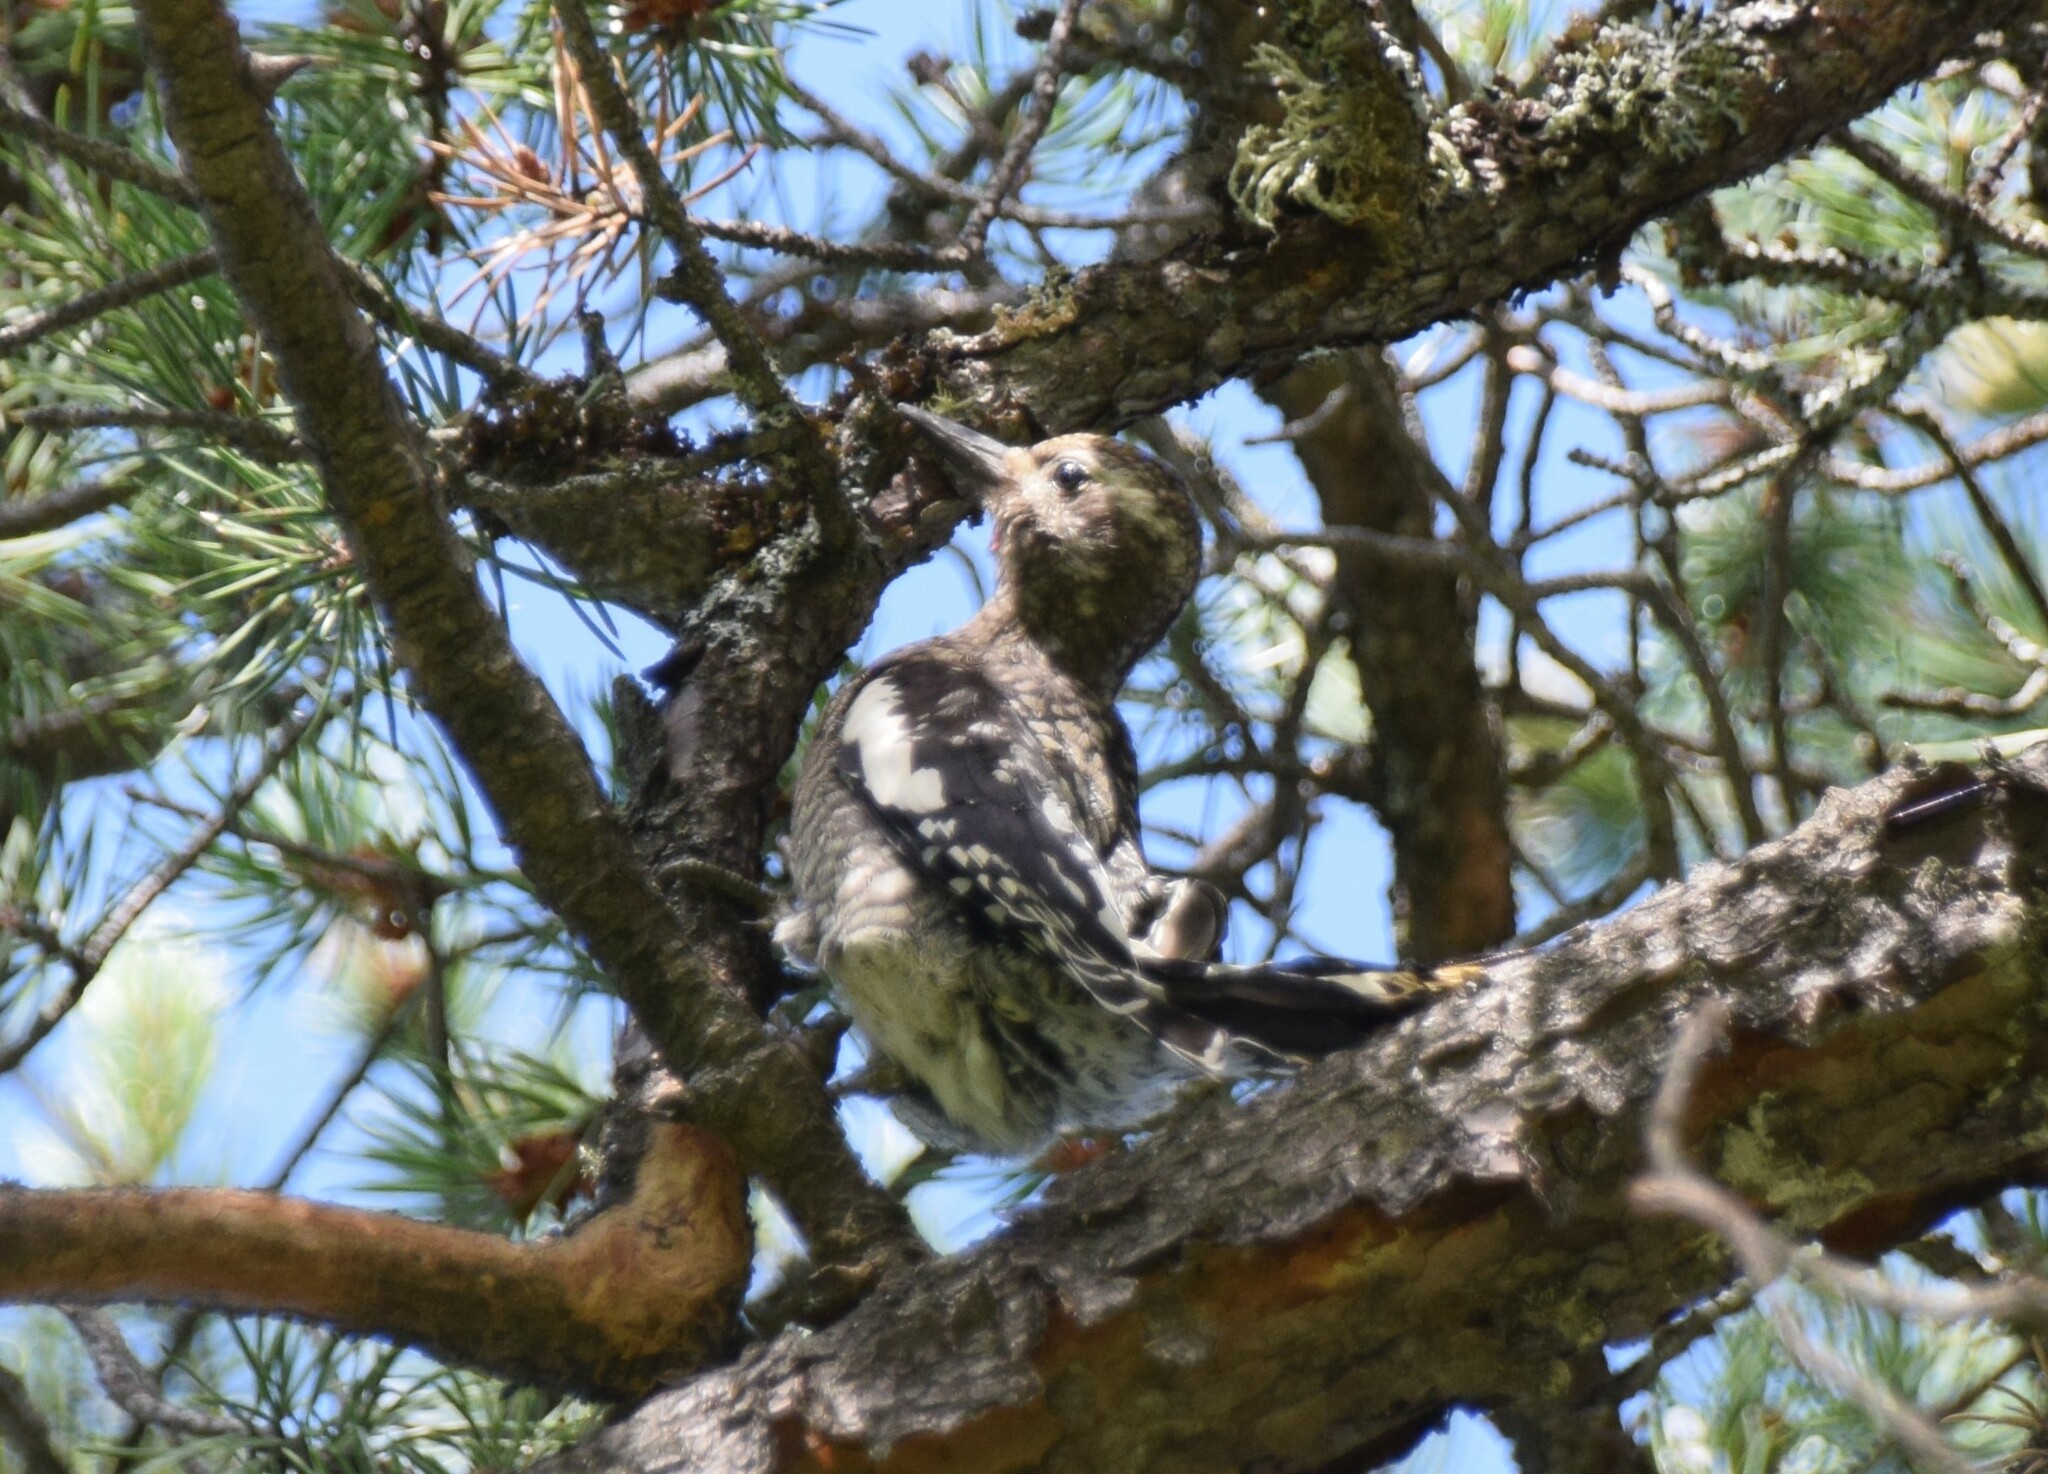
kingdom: Animalia
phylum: Chordata
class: Aves
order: Piciformes
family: Picidae
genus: Sphyrapicus
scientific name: Sphyrapicus varius
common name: Yellow-bellied sapsucker
